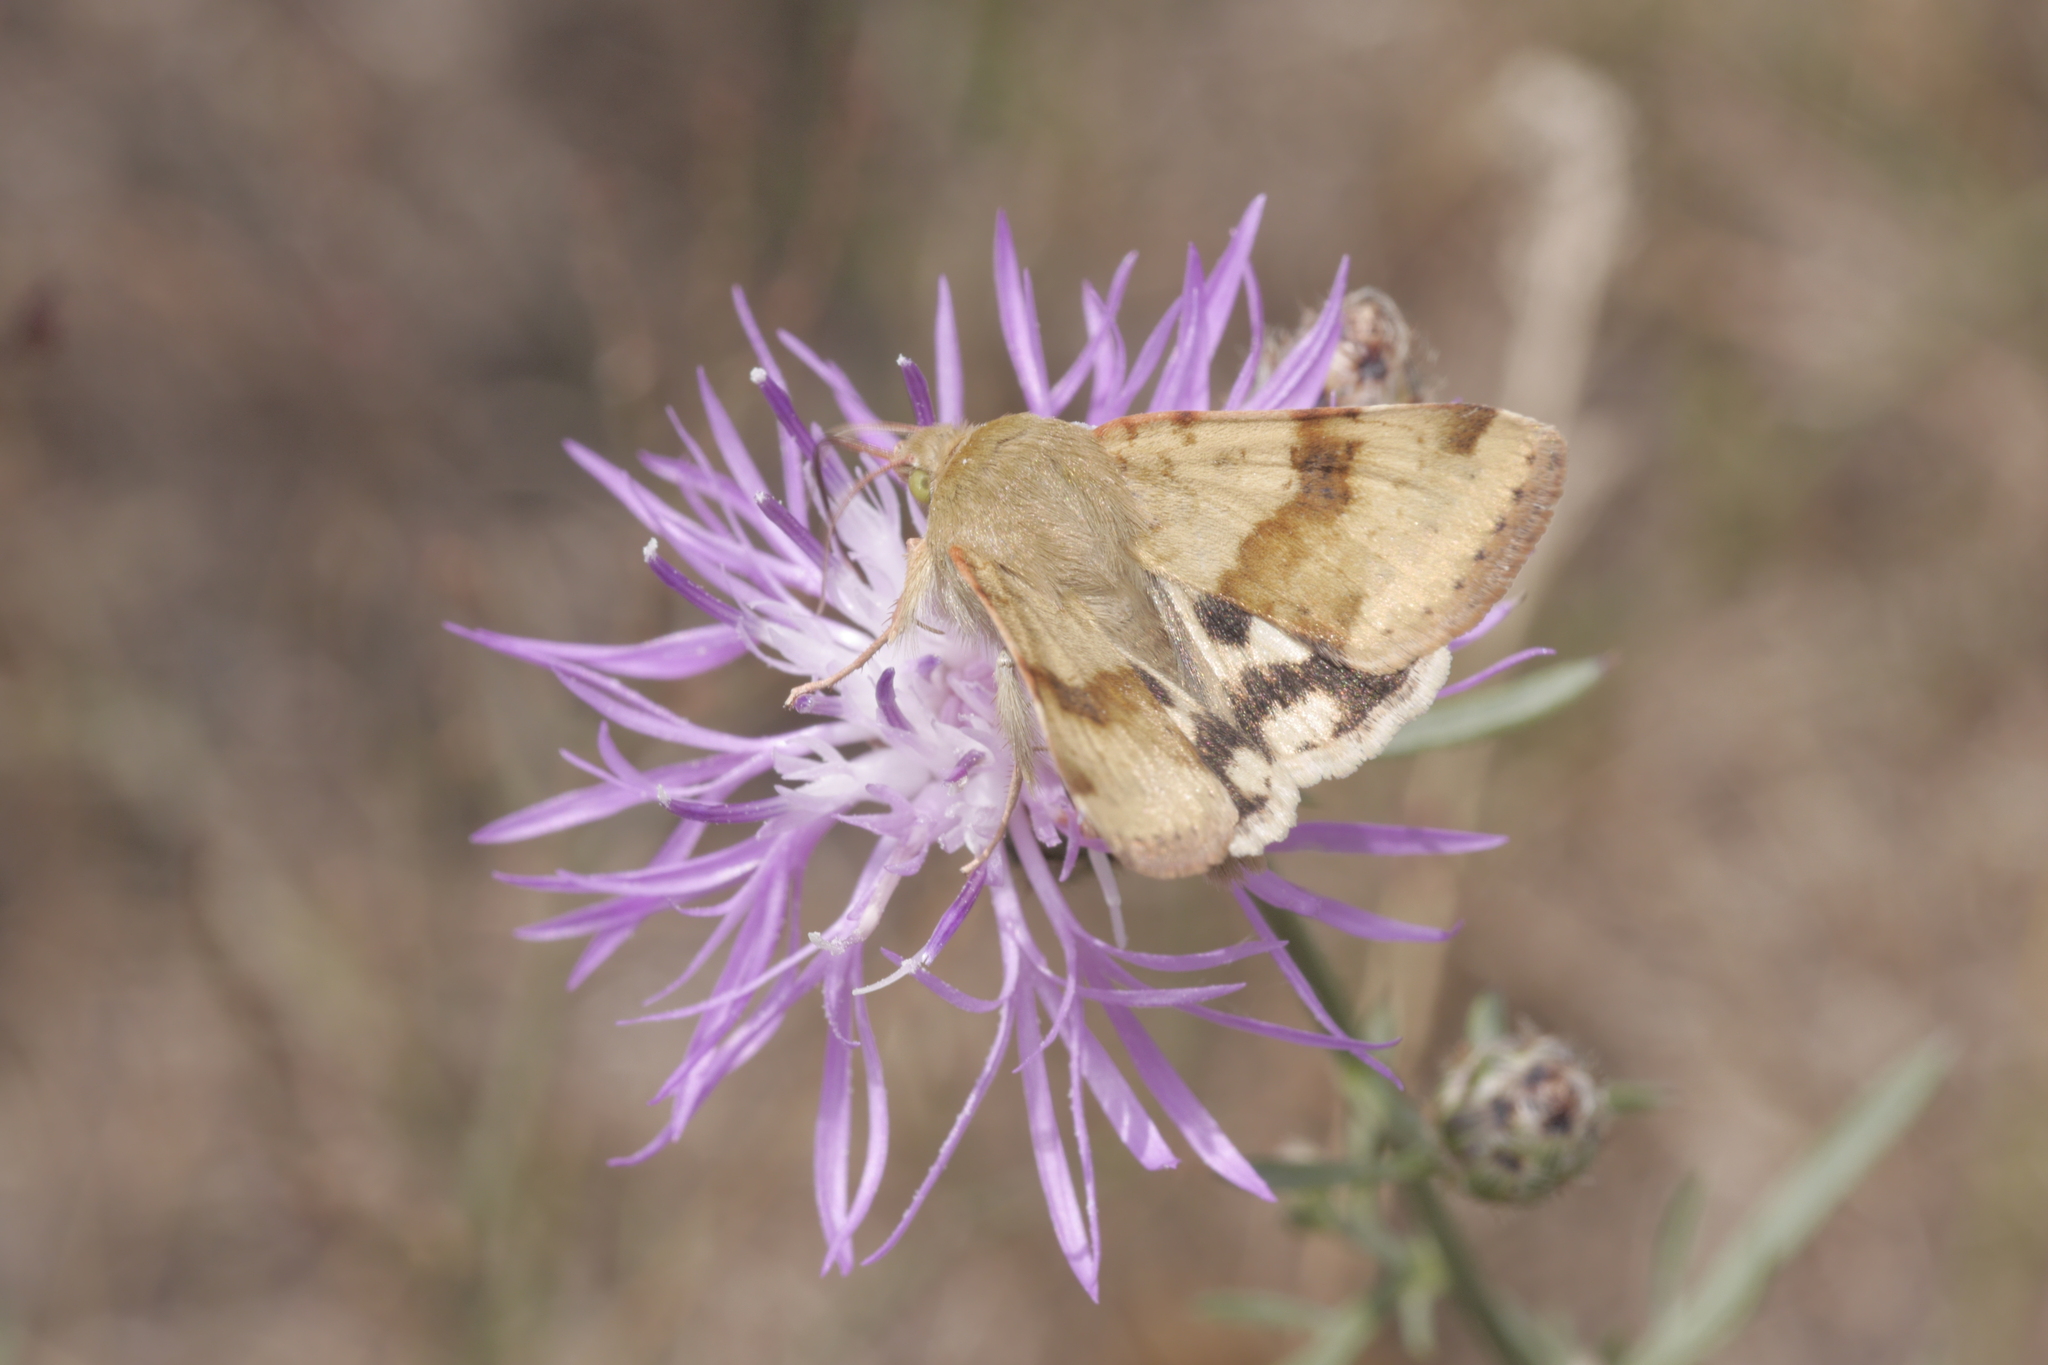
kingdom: Animalia
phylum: Arthropoda
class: Insecta
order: Lepidoptera
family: Noctuidae
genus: Heliothis
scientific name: Heliothis viriplaca
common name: Marbled clover
